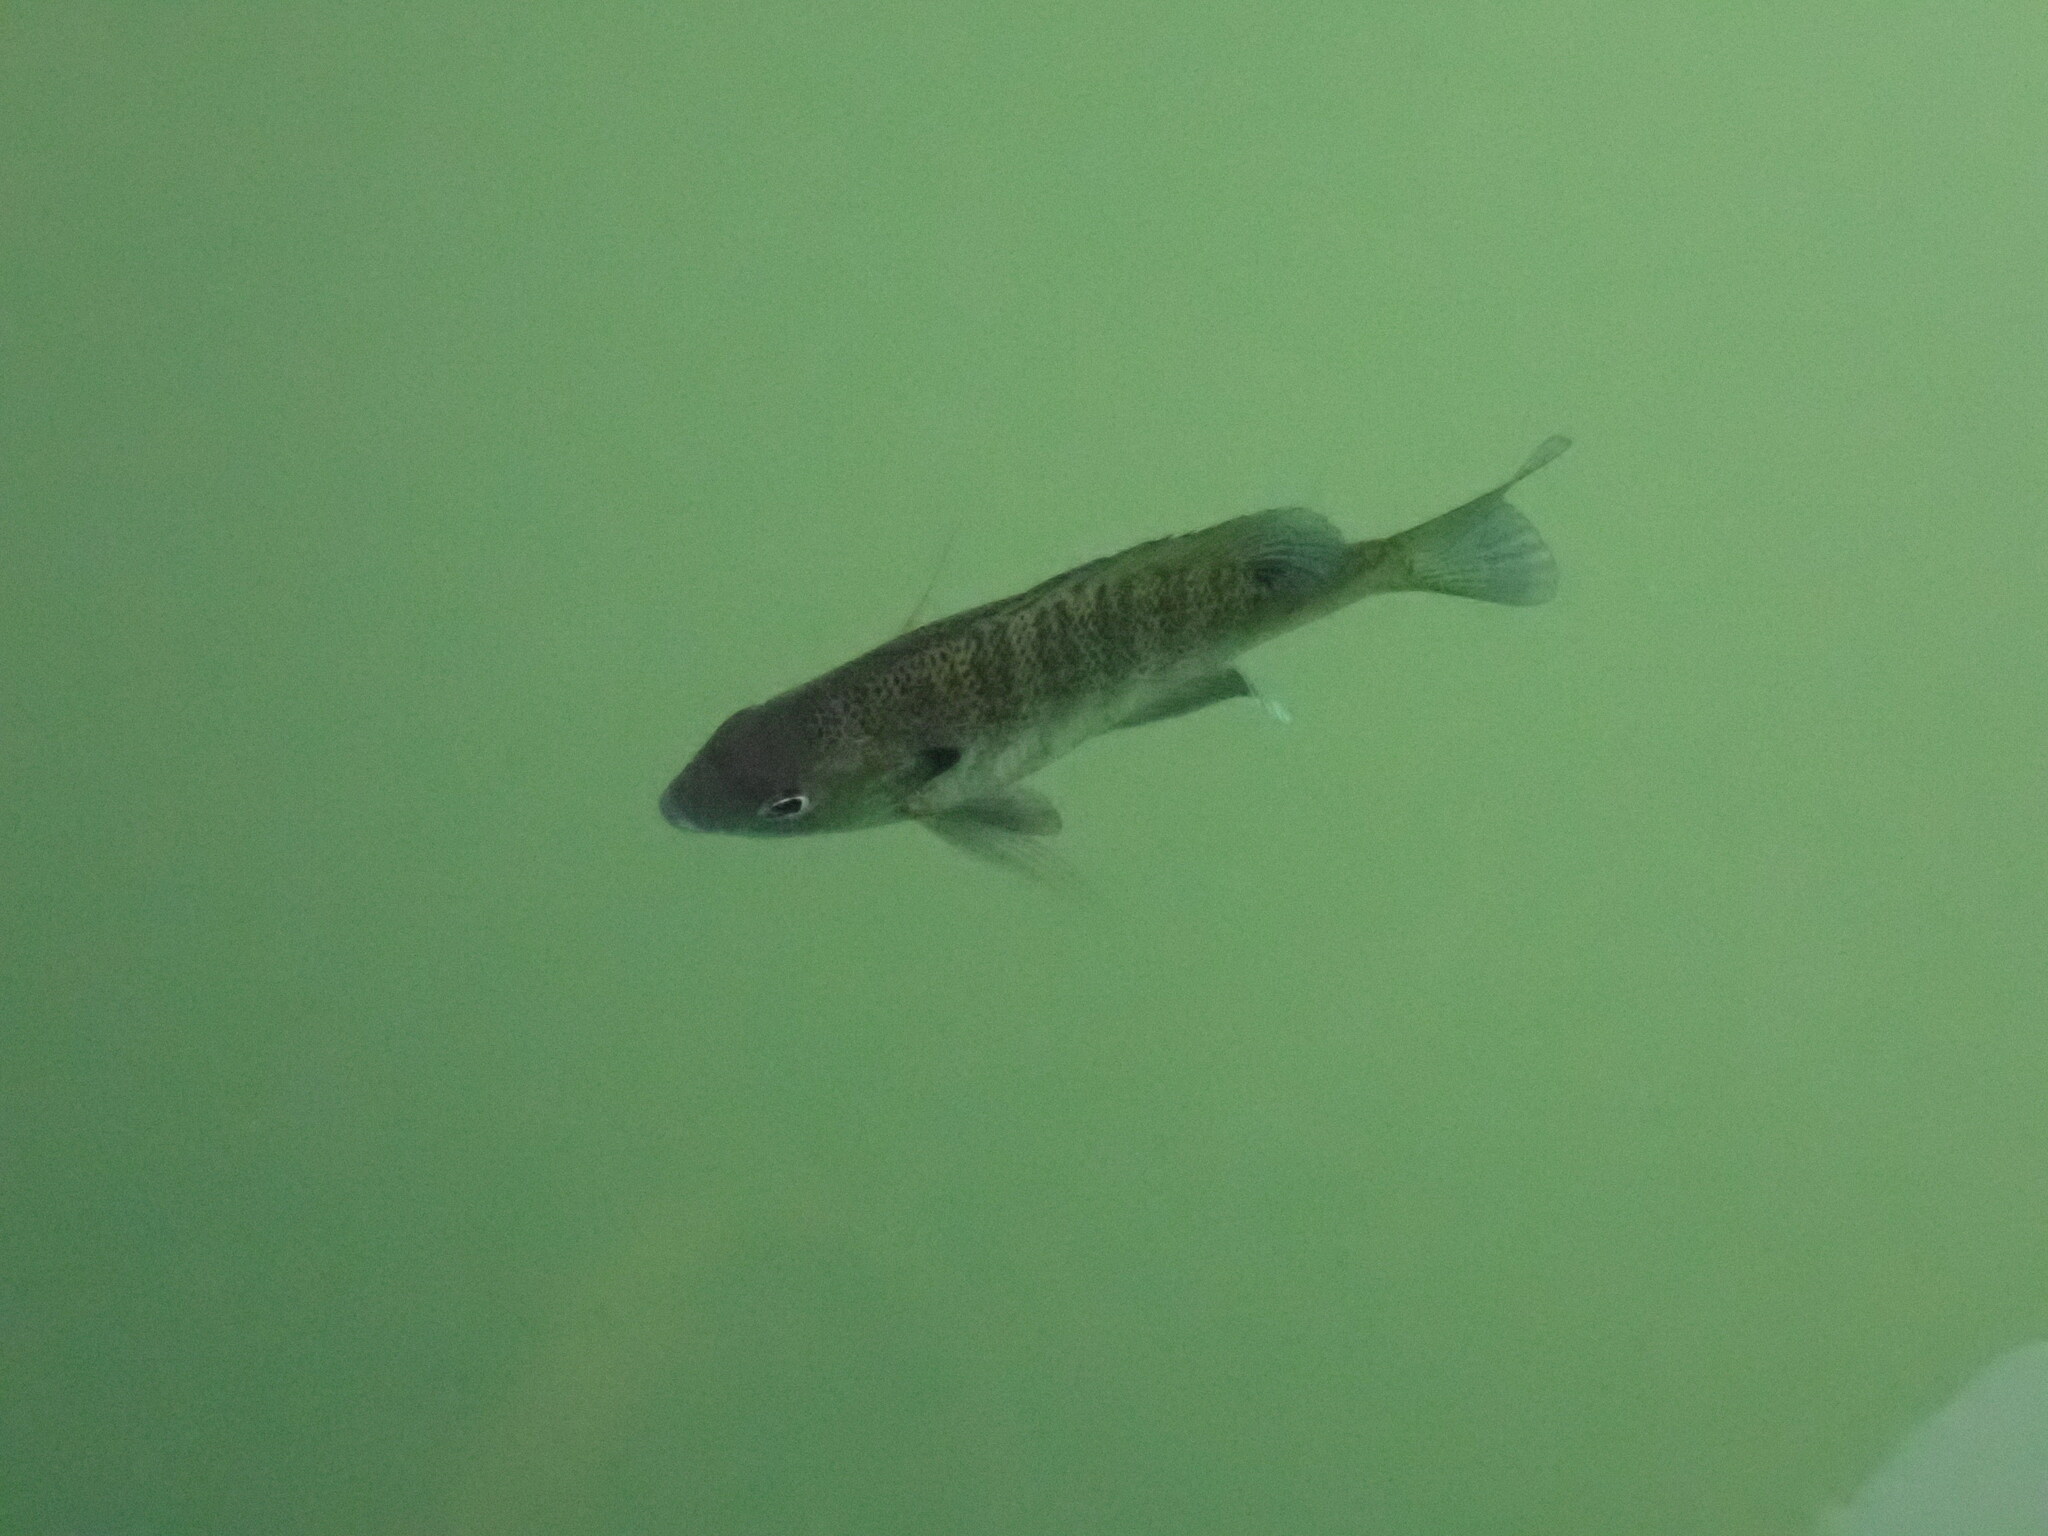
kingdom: Animalia
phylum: Chordata
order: Perciformes
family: Centrarchidae
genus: Lepomis
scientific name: Lepomis macrochirus
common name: Bluegill
